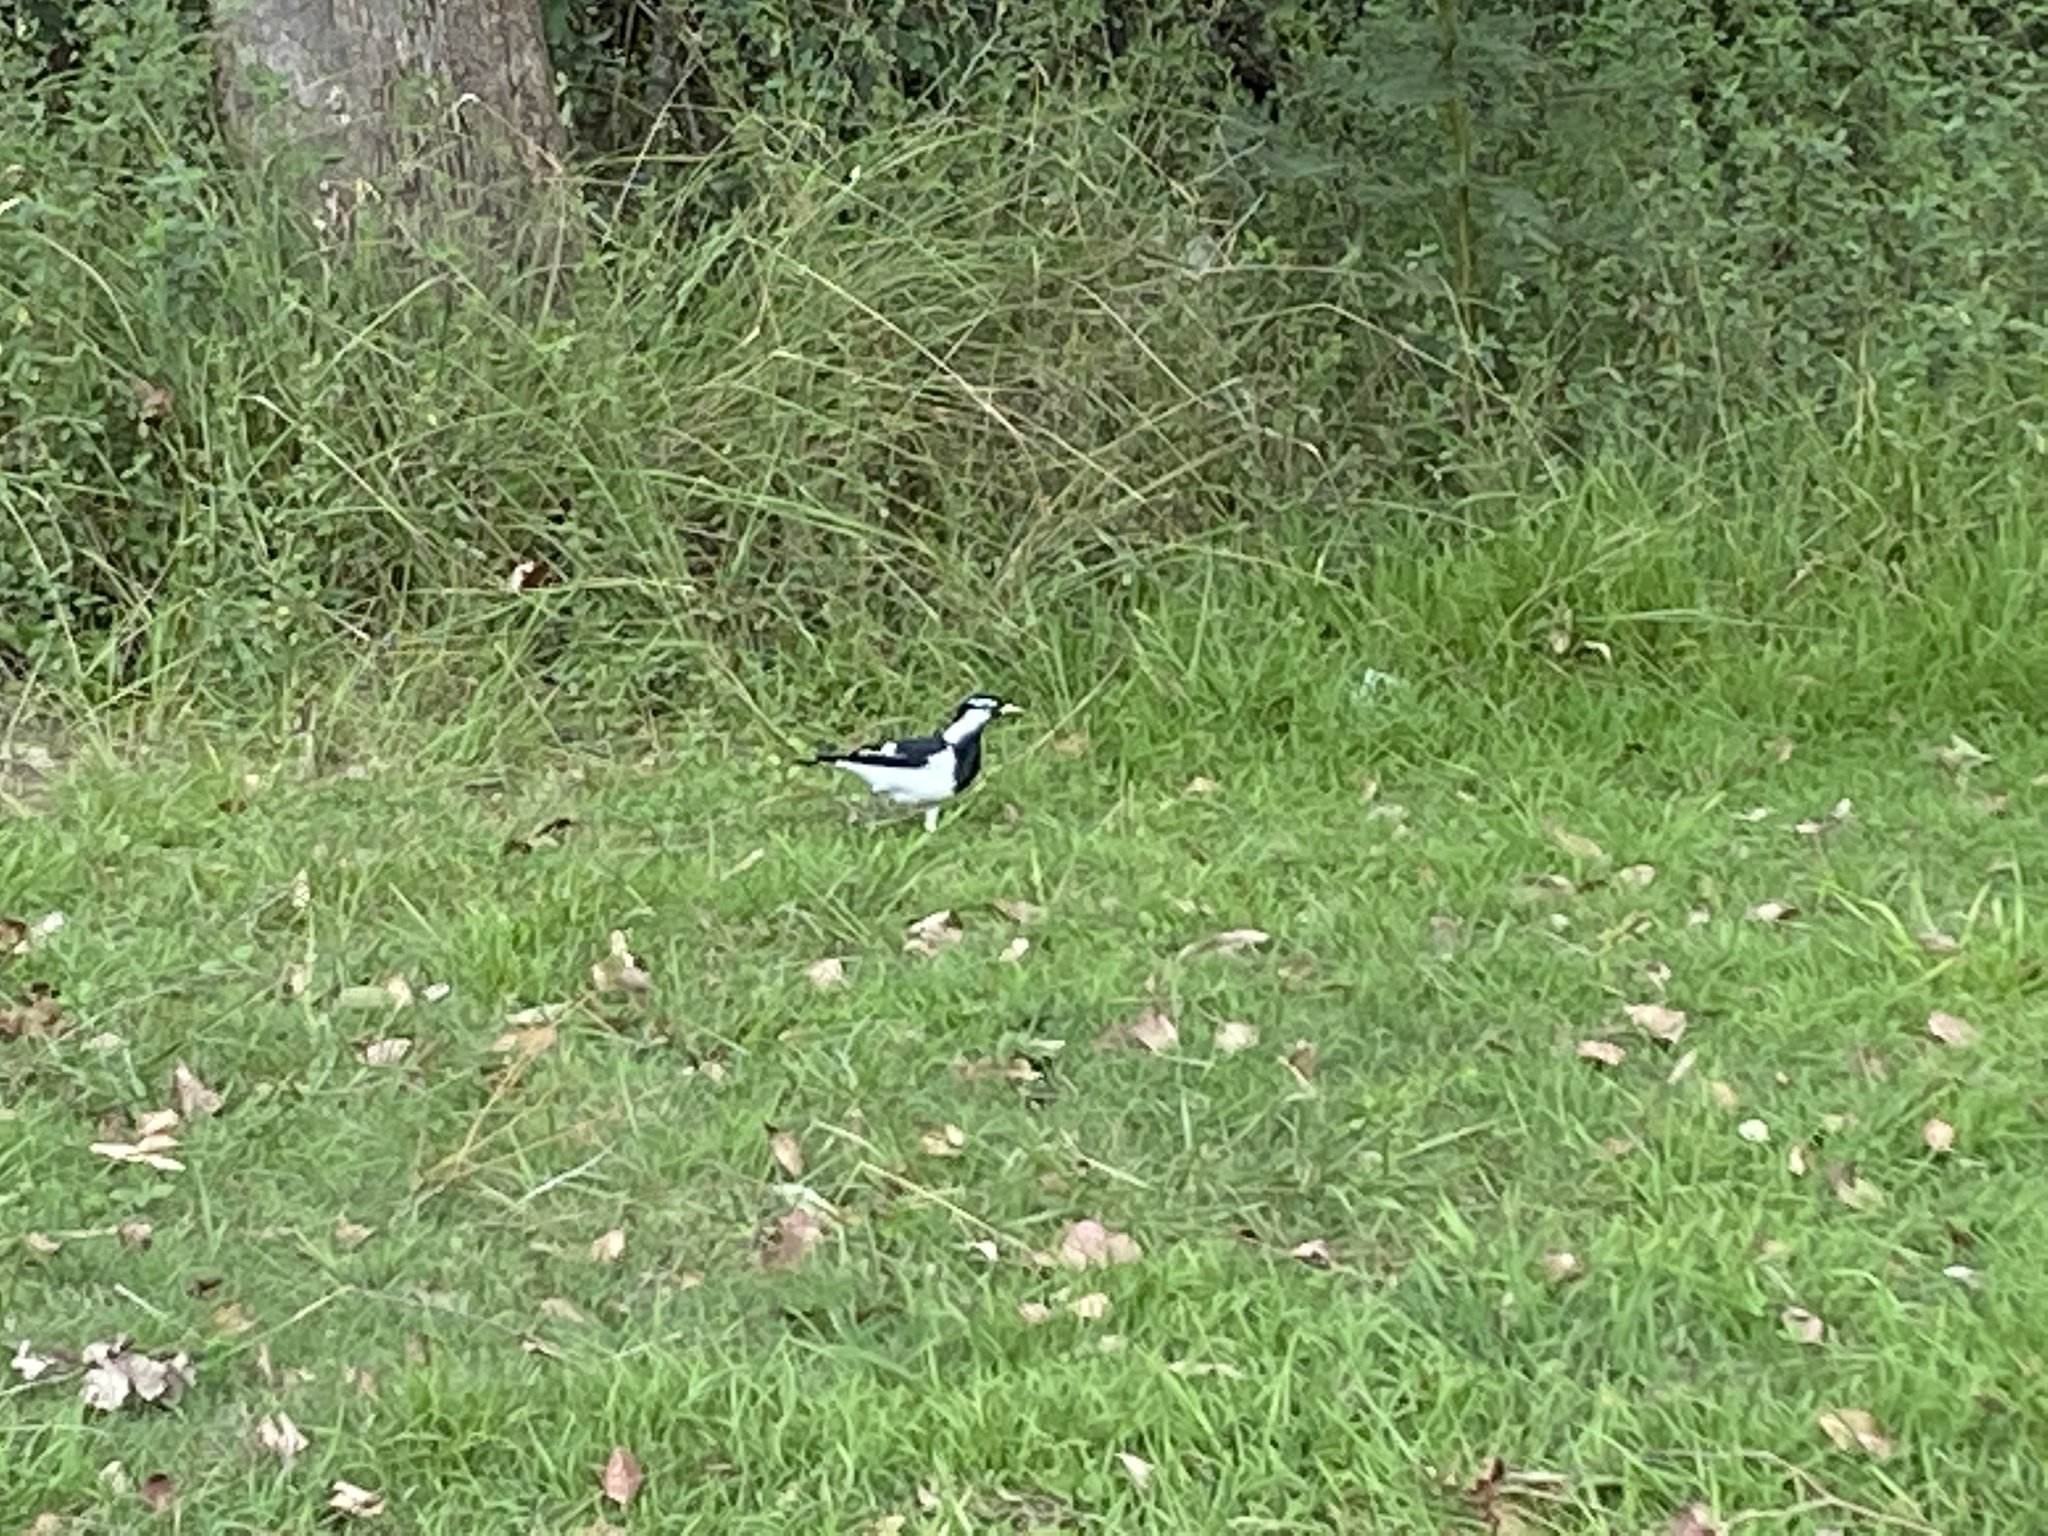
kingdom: Animalia
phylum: Chordata
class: Aves
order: Passeriformes
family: Monarchidae
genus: Grallina
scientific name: Grallina cyanoleuca
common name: Magpie-lark
